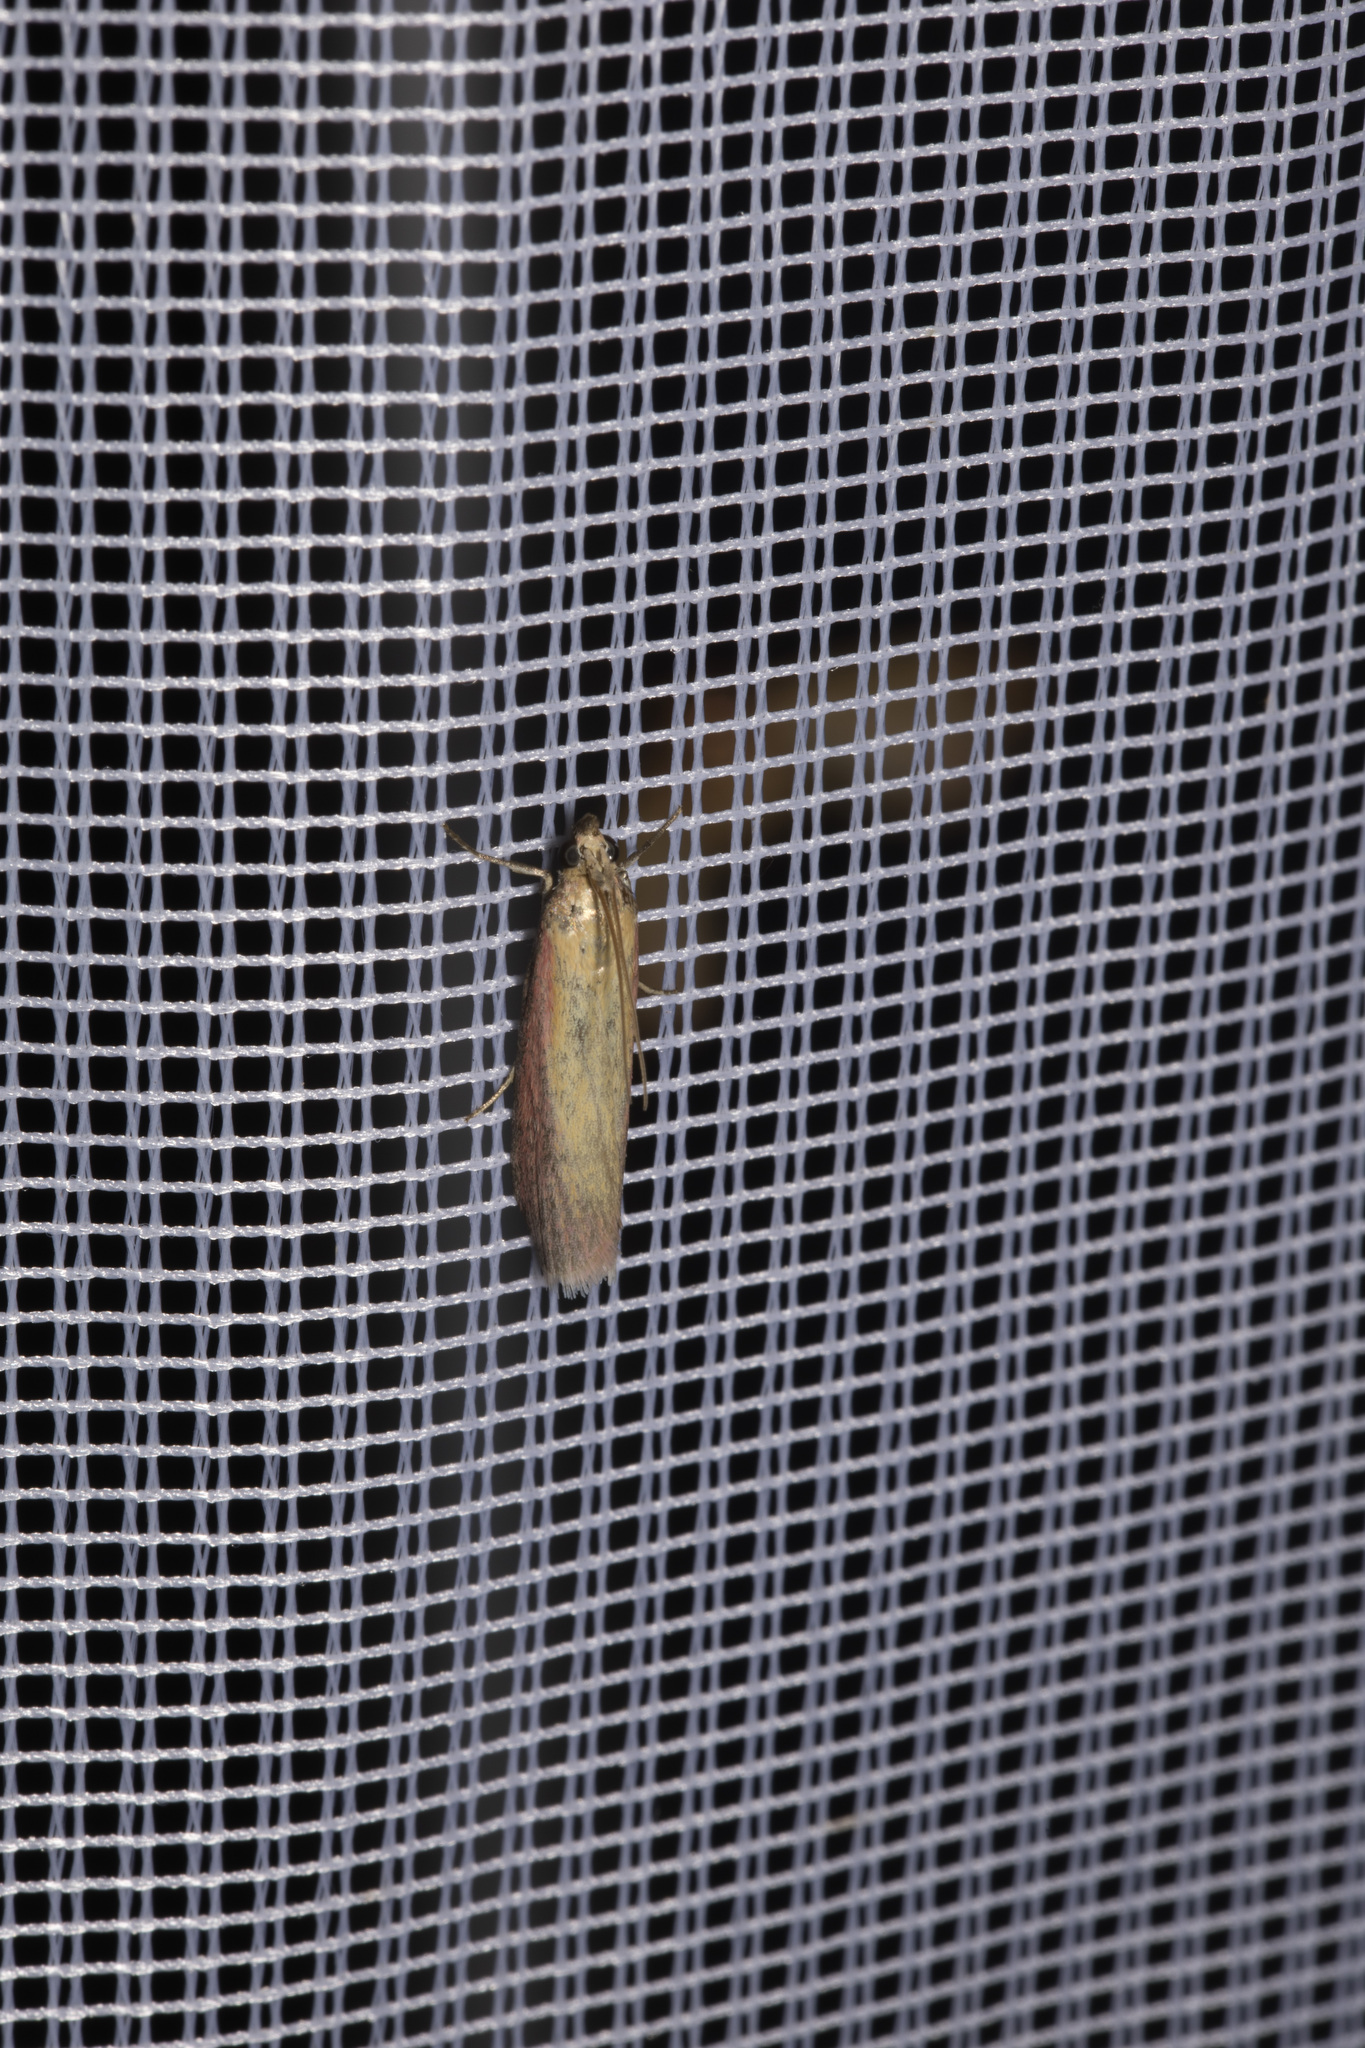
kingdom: Animalia
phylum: Arthropoda
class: Insecta
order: Lepidoptera
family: Pyralidae
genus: Oncocera
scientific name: Oncocera semirubella
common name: Rosy-striped knot-horn
